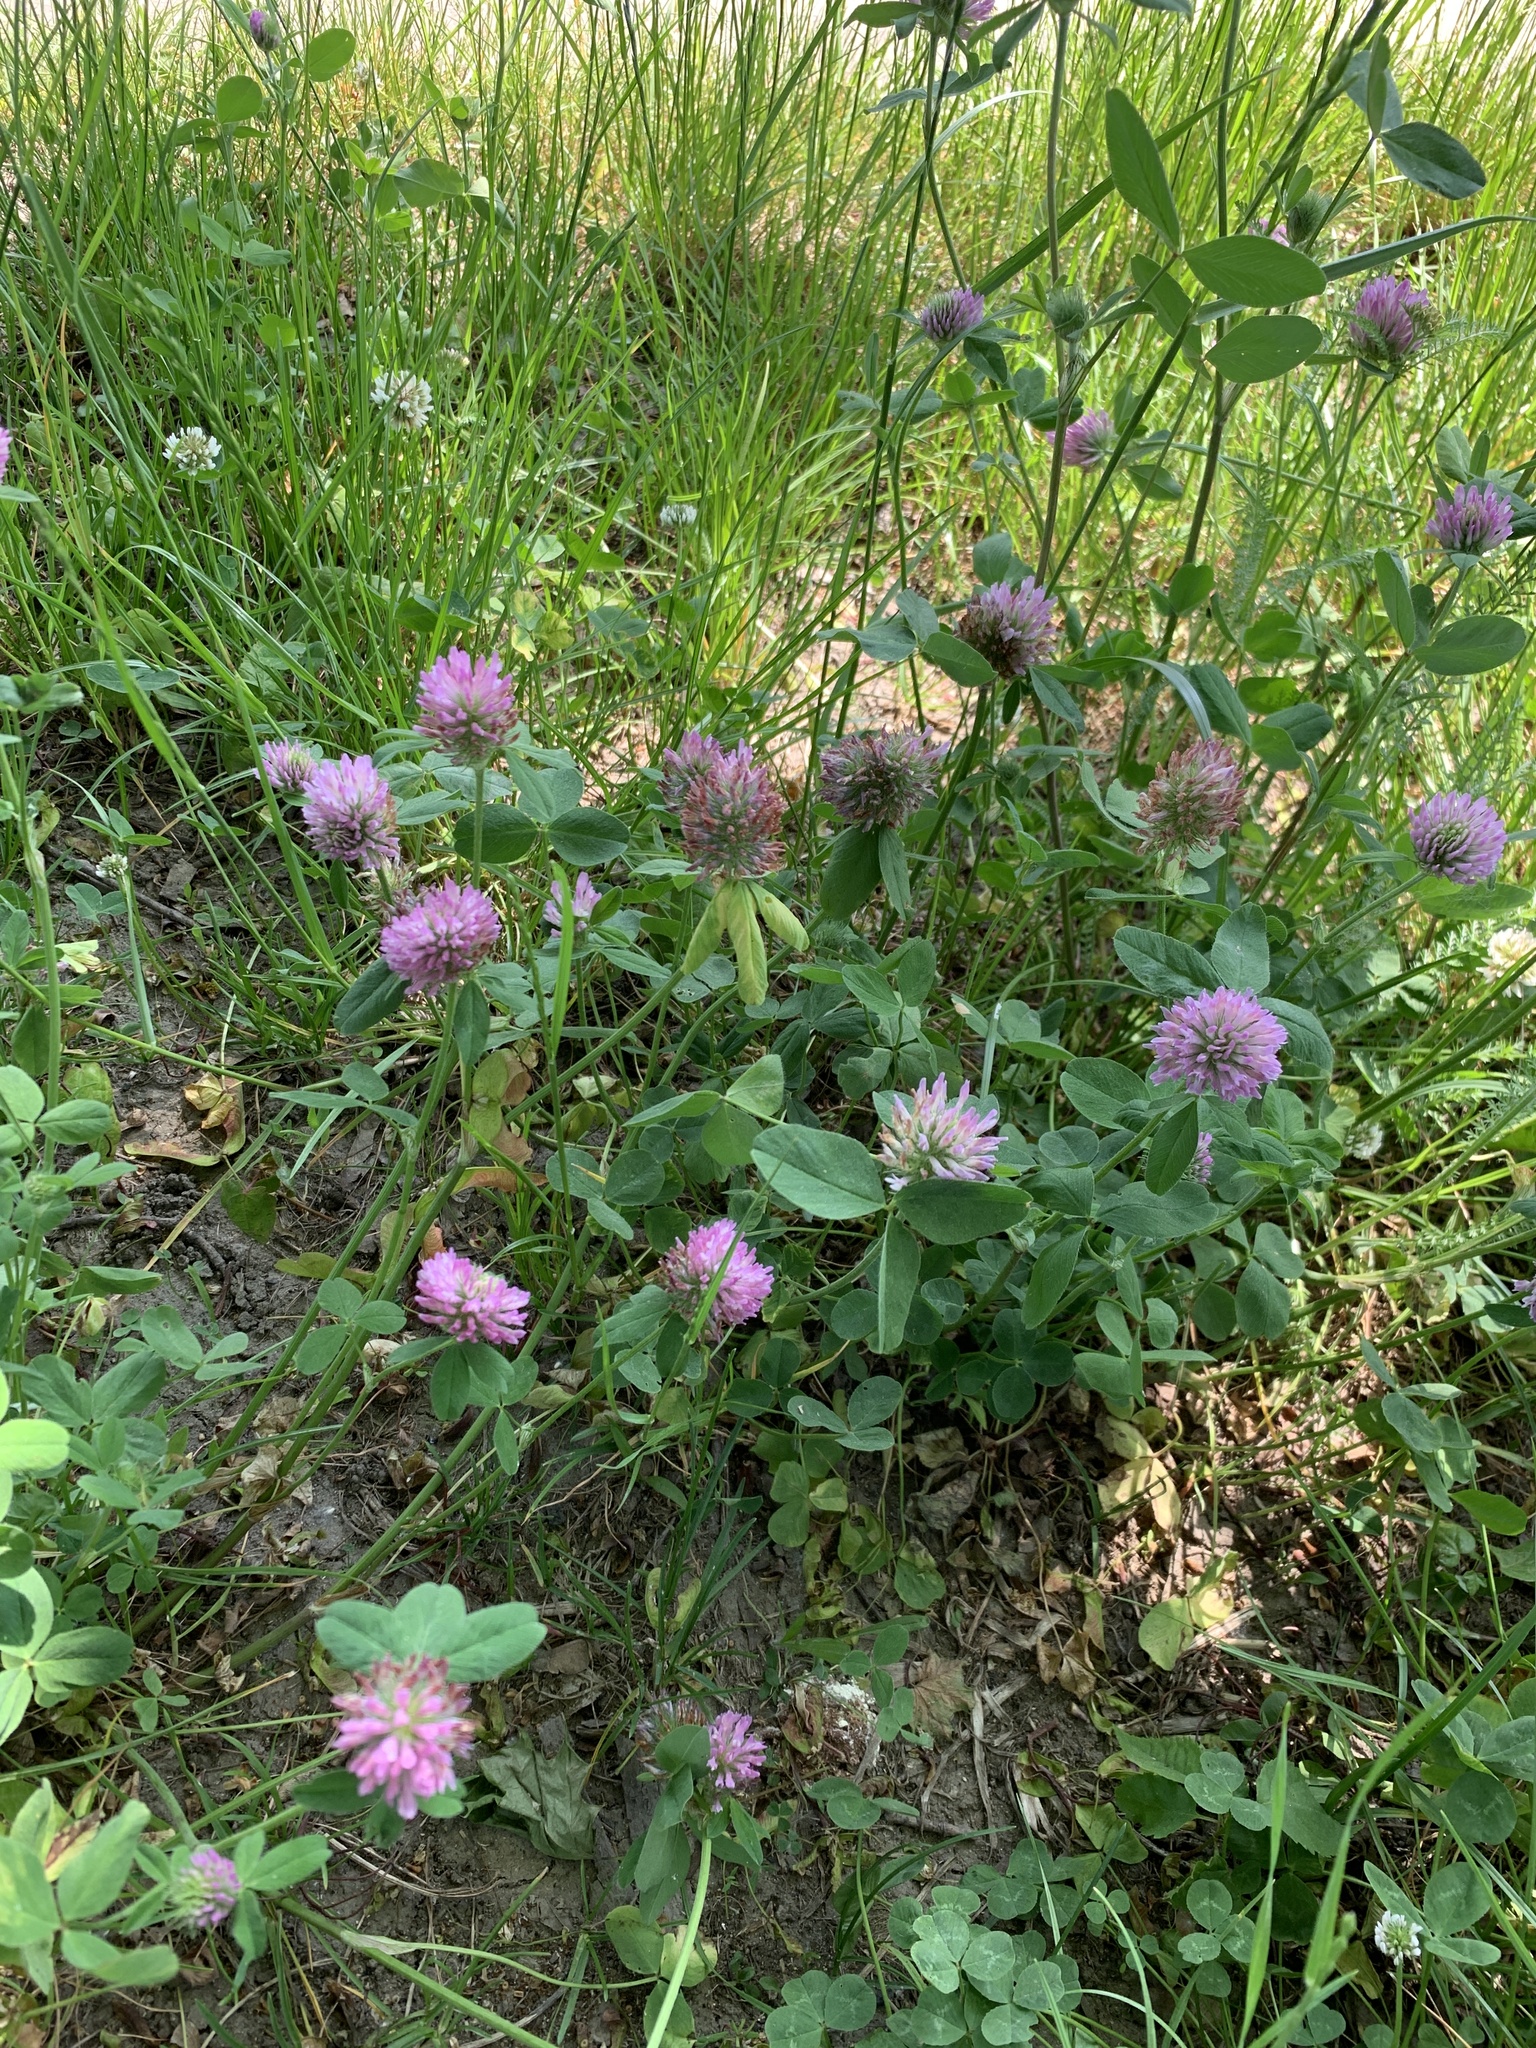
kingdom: Plantae
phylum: Tracheophyta
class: Magnoliopsida
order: Fabales
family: Fabaceae
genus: Trifolium
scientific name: Trifolium pratense
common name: Red clover
